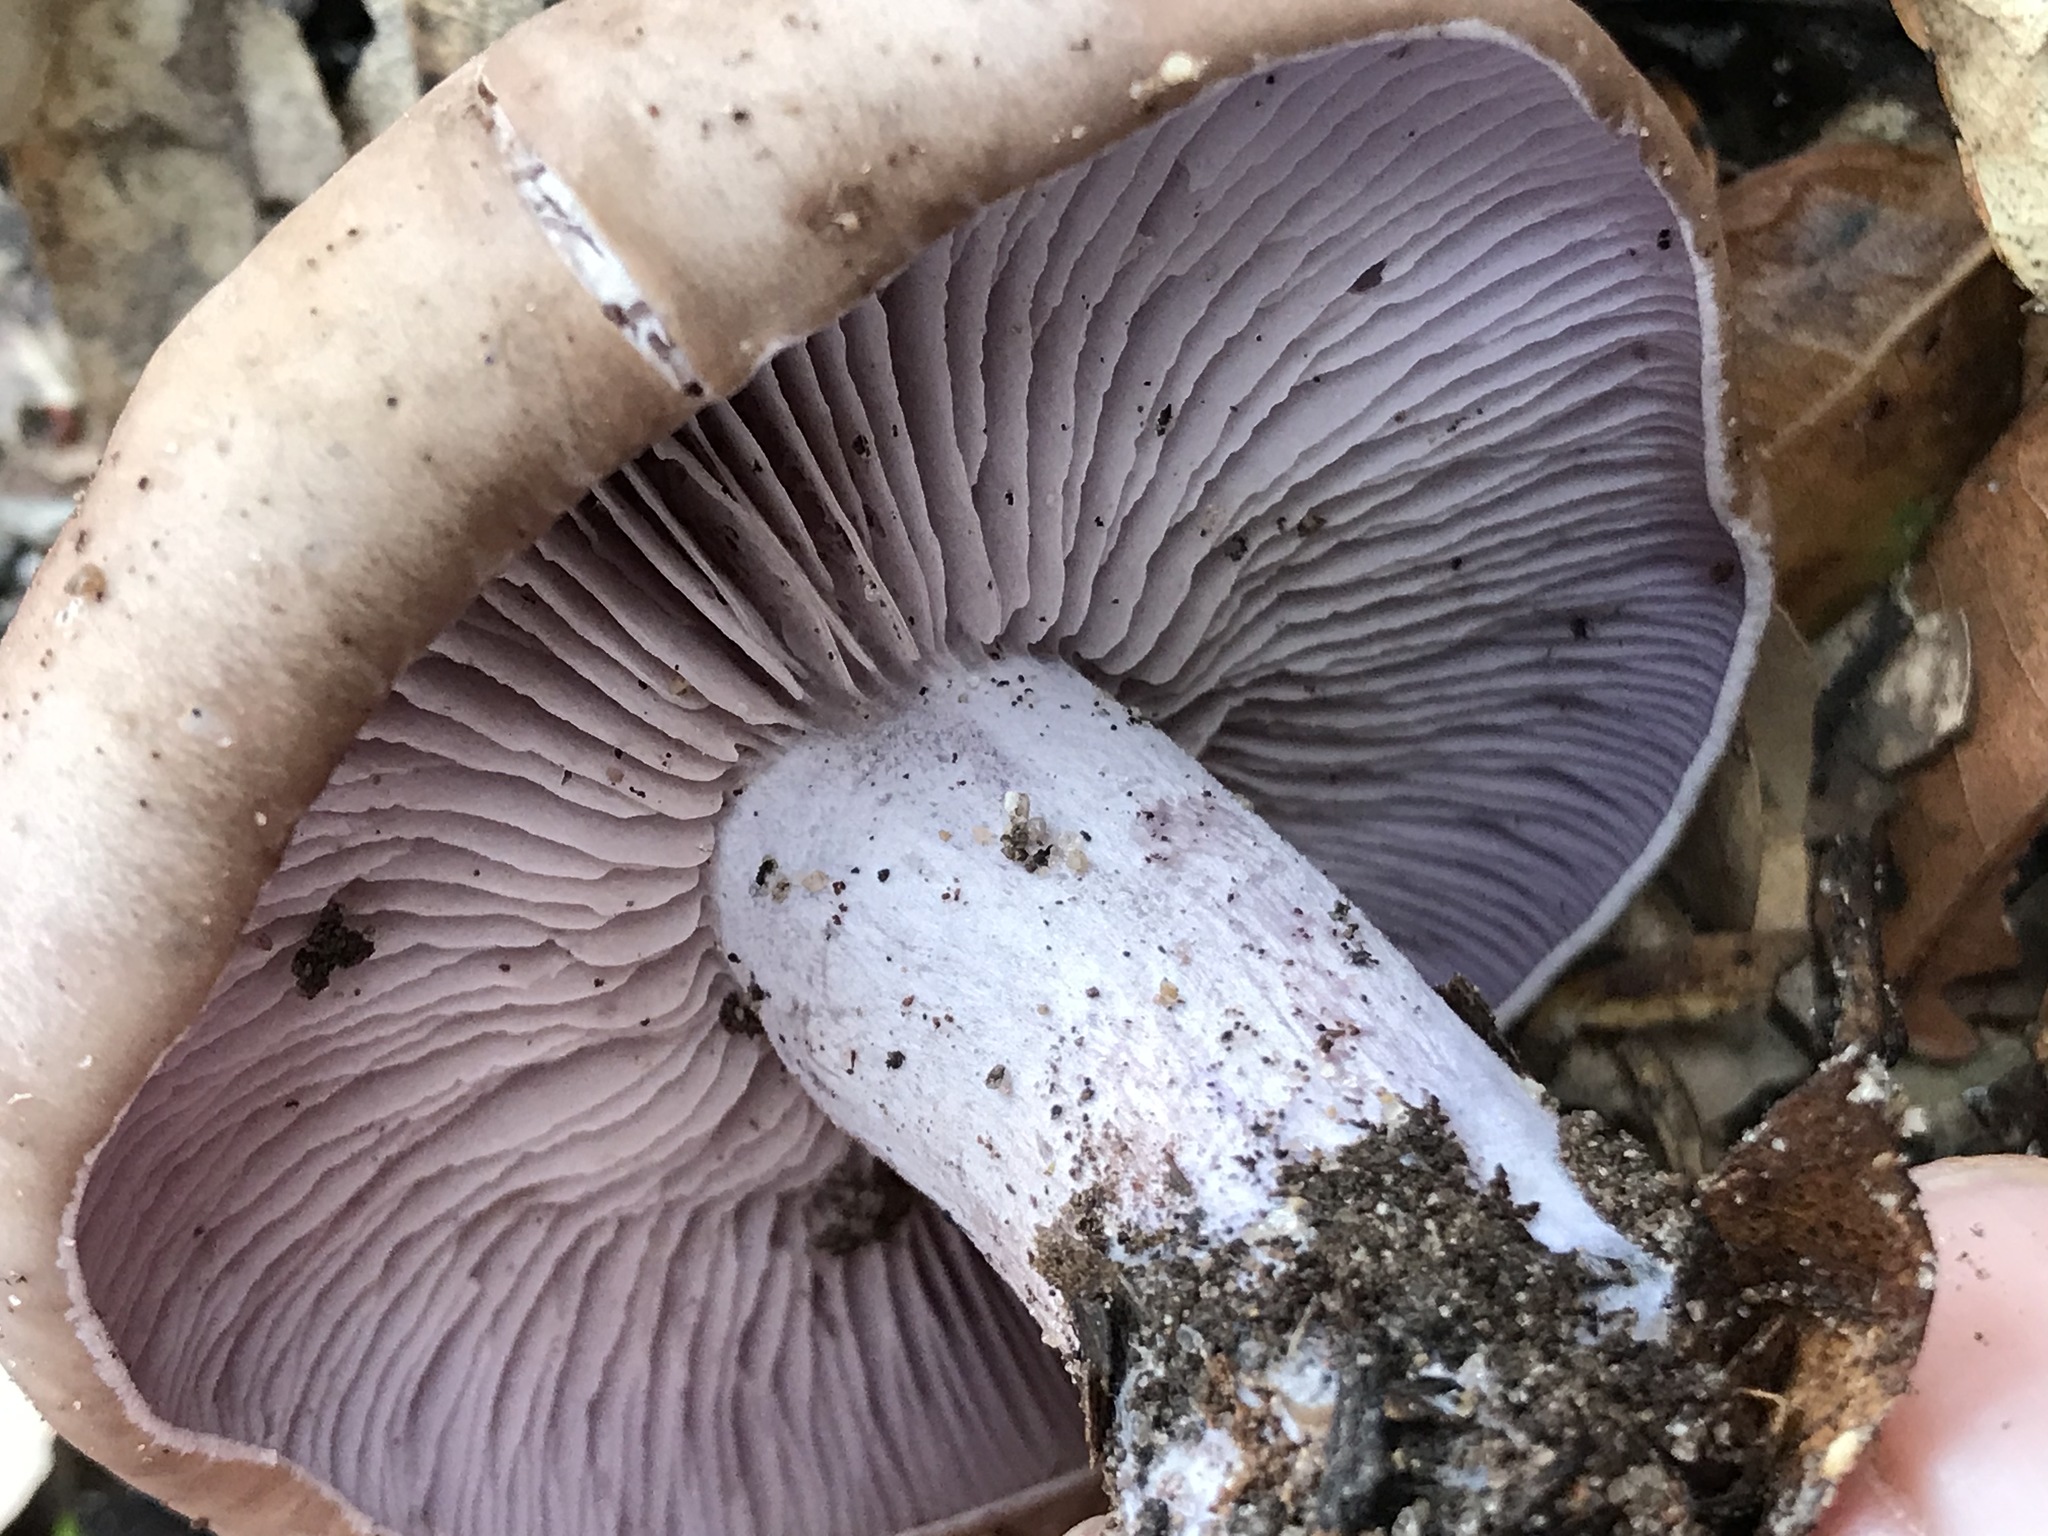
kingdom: Fungi
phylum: Basidiomycota
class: Agaricomycetes
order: Agaricales
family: Tricholomataceae
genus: Collybia
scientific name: Collybia
